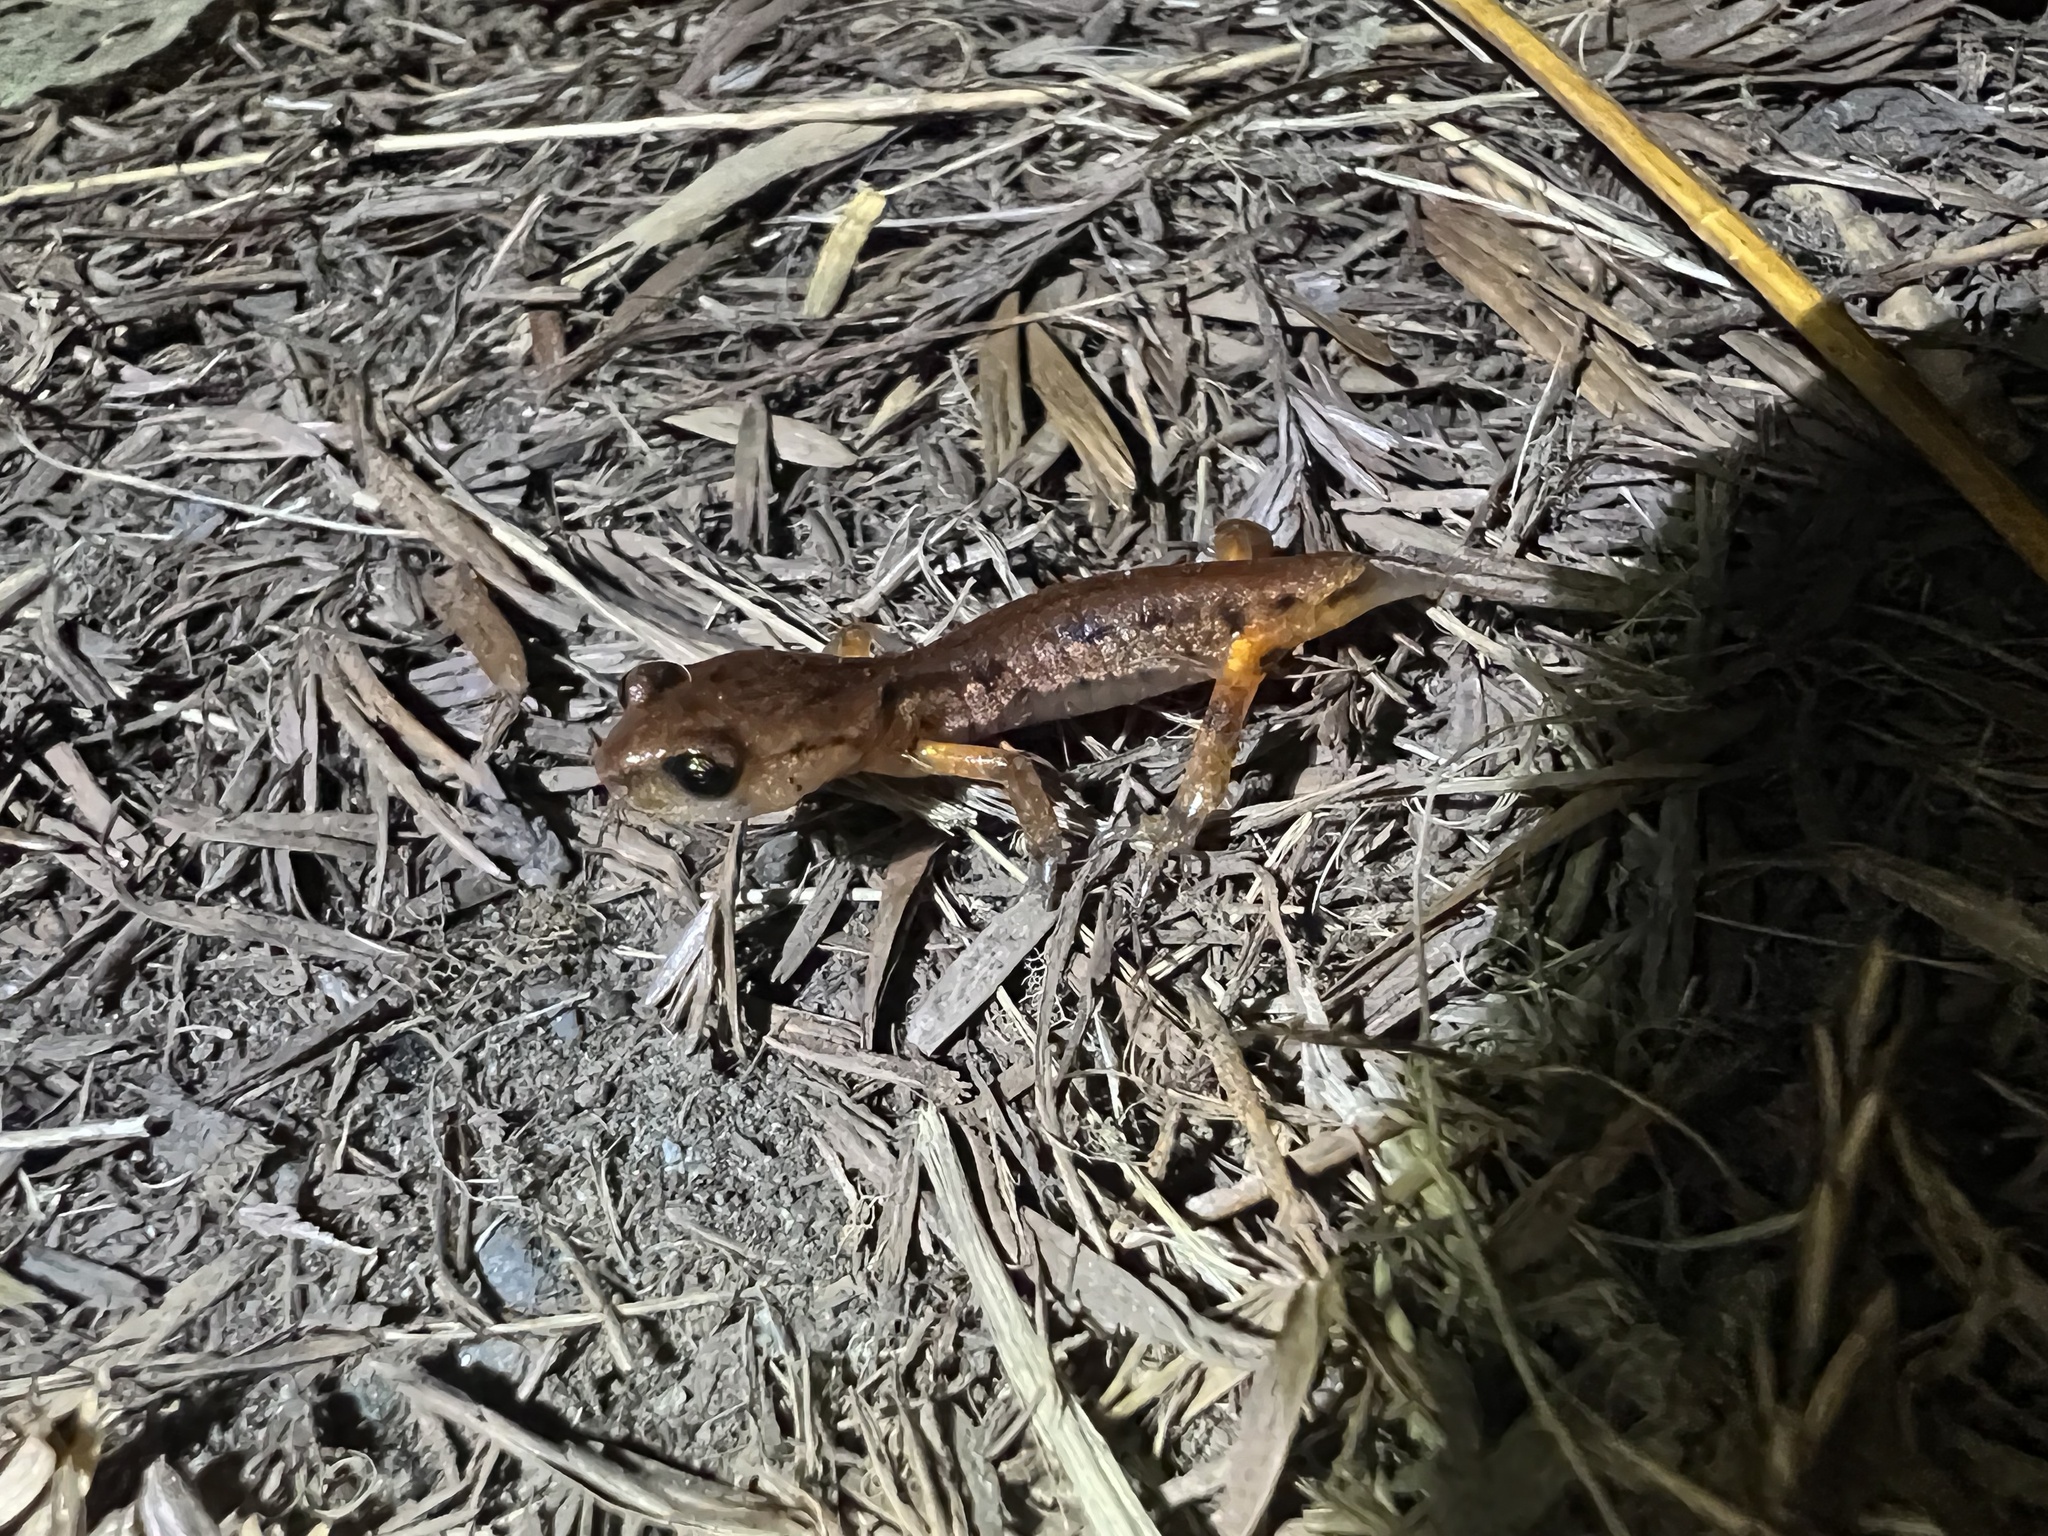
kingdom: Animalia
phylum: Chordata
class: Amphibia
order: Caudata
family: Plethodontidae
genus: Ensatina
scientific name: Ensatina eschscholtzii
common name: Ensatina
